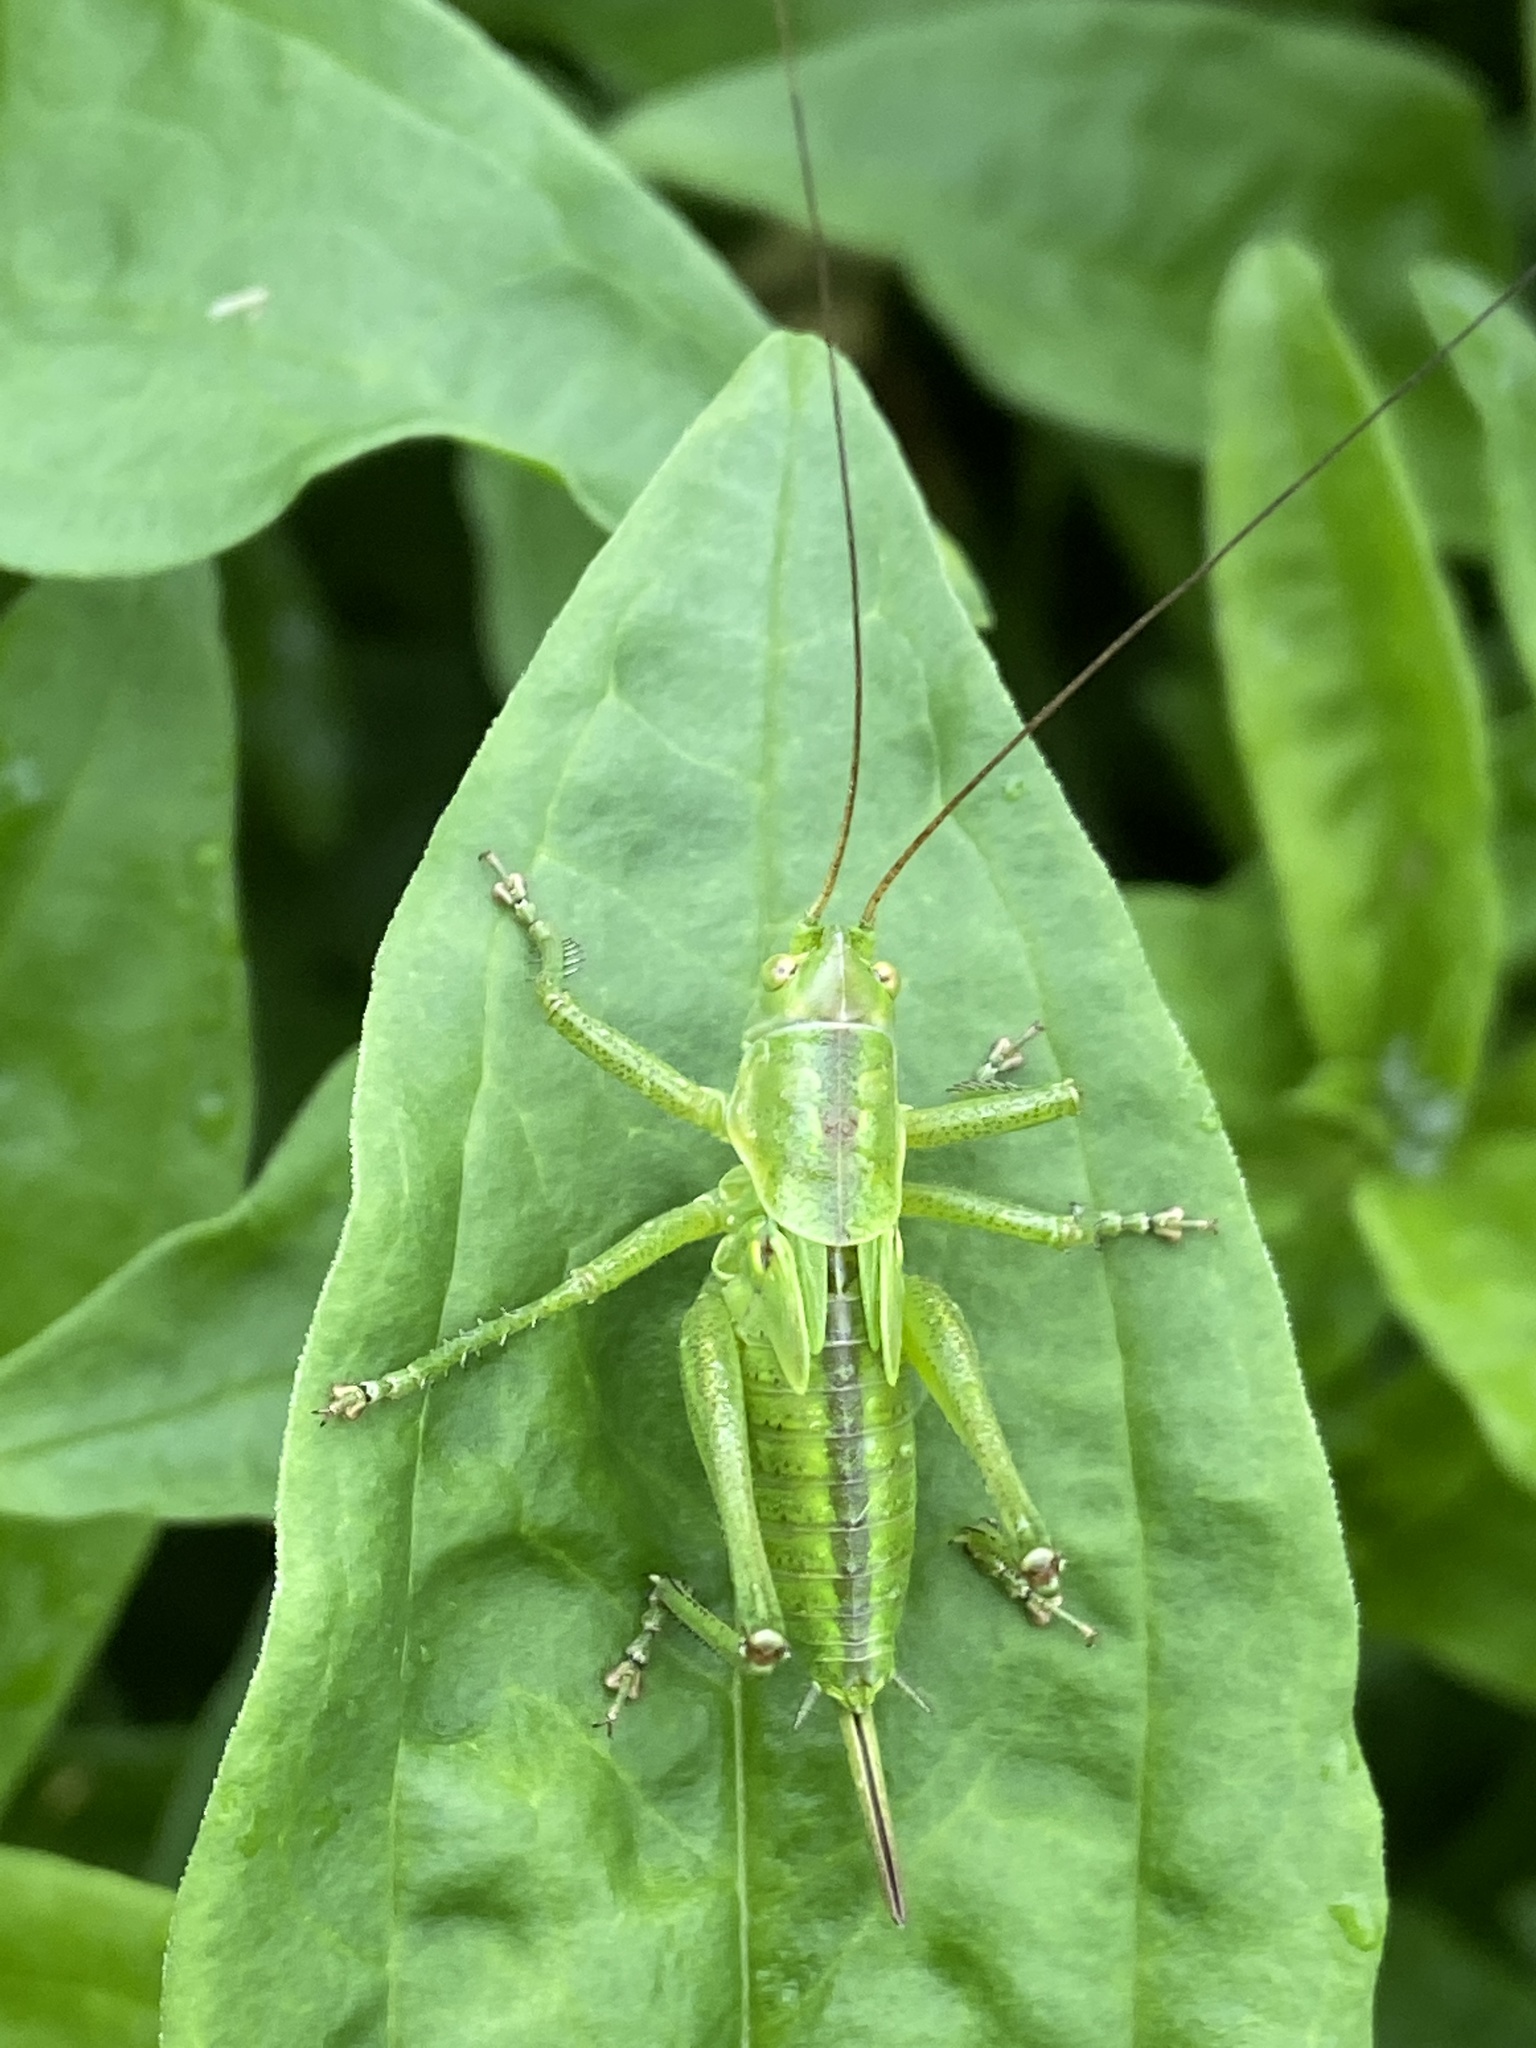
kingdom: Animalia
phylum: Arthropoda
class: Insecta
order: Orthoptera
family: Tettigoniidae
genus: Tettigonia
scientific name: Tettigonia viridissima
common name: Great green bush-cricket
